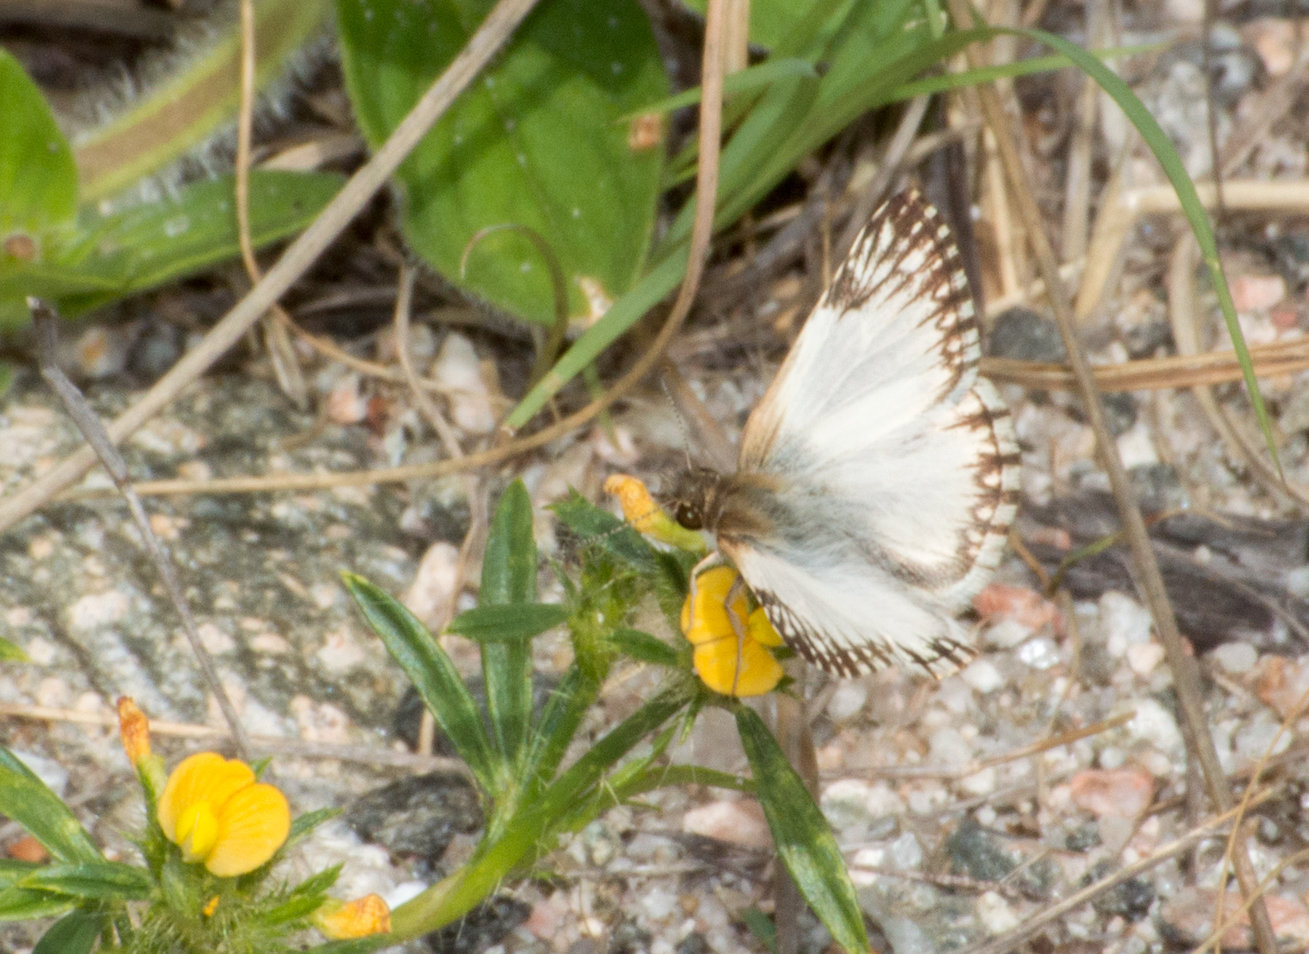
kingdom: Animalia
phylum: Arthropoda
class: Insecta
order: Lepidoptera
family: Hesperiidae
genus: Heliopetes
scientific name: Heliopetes omrina
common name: Stained white-skipper
